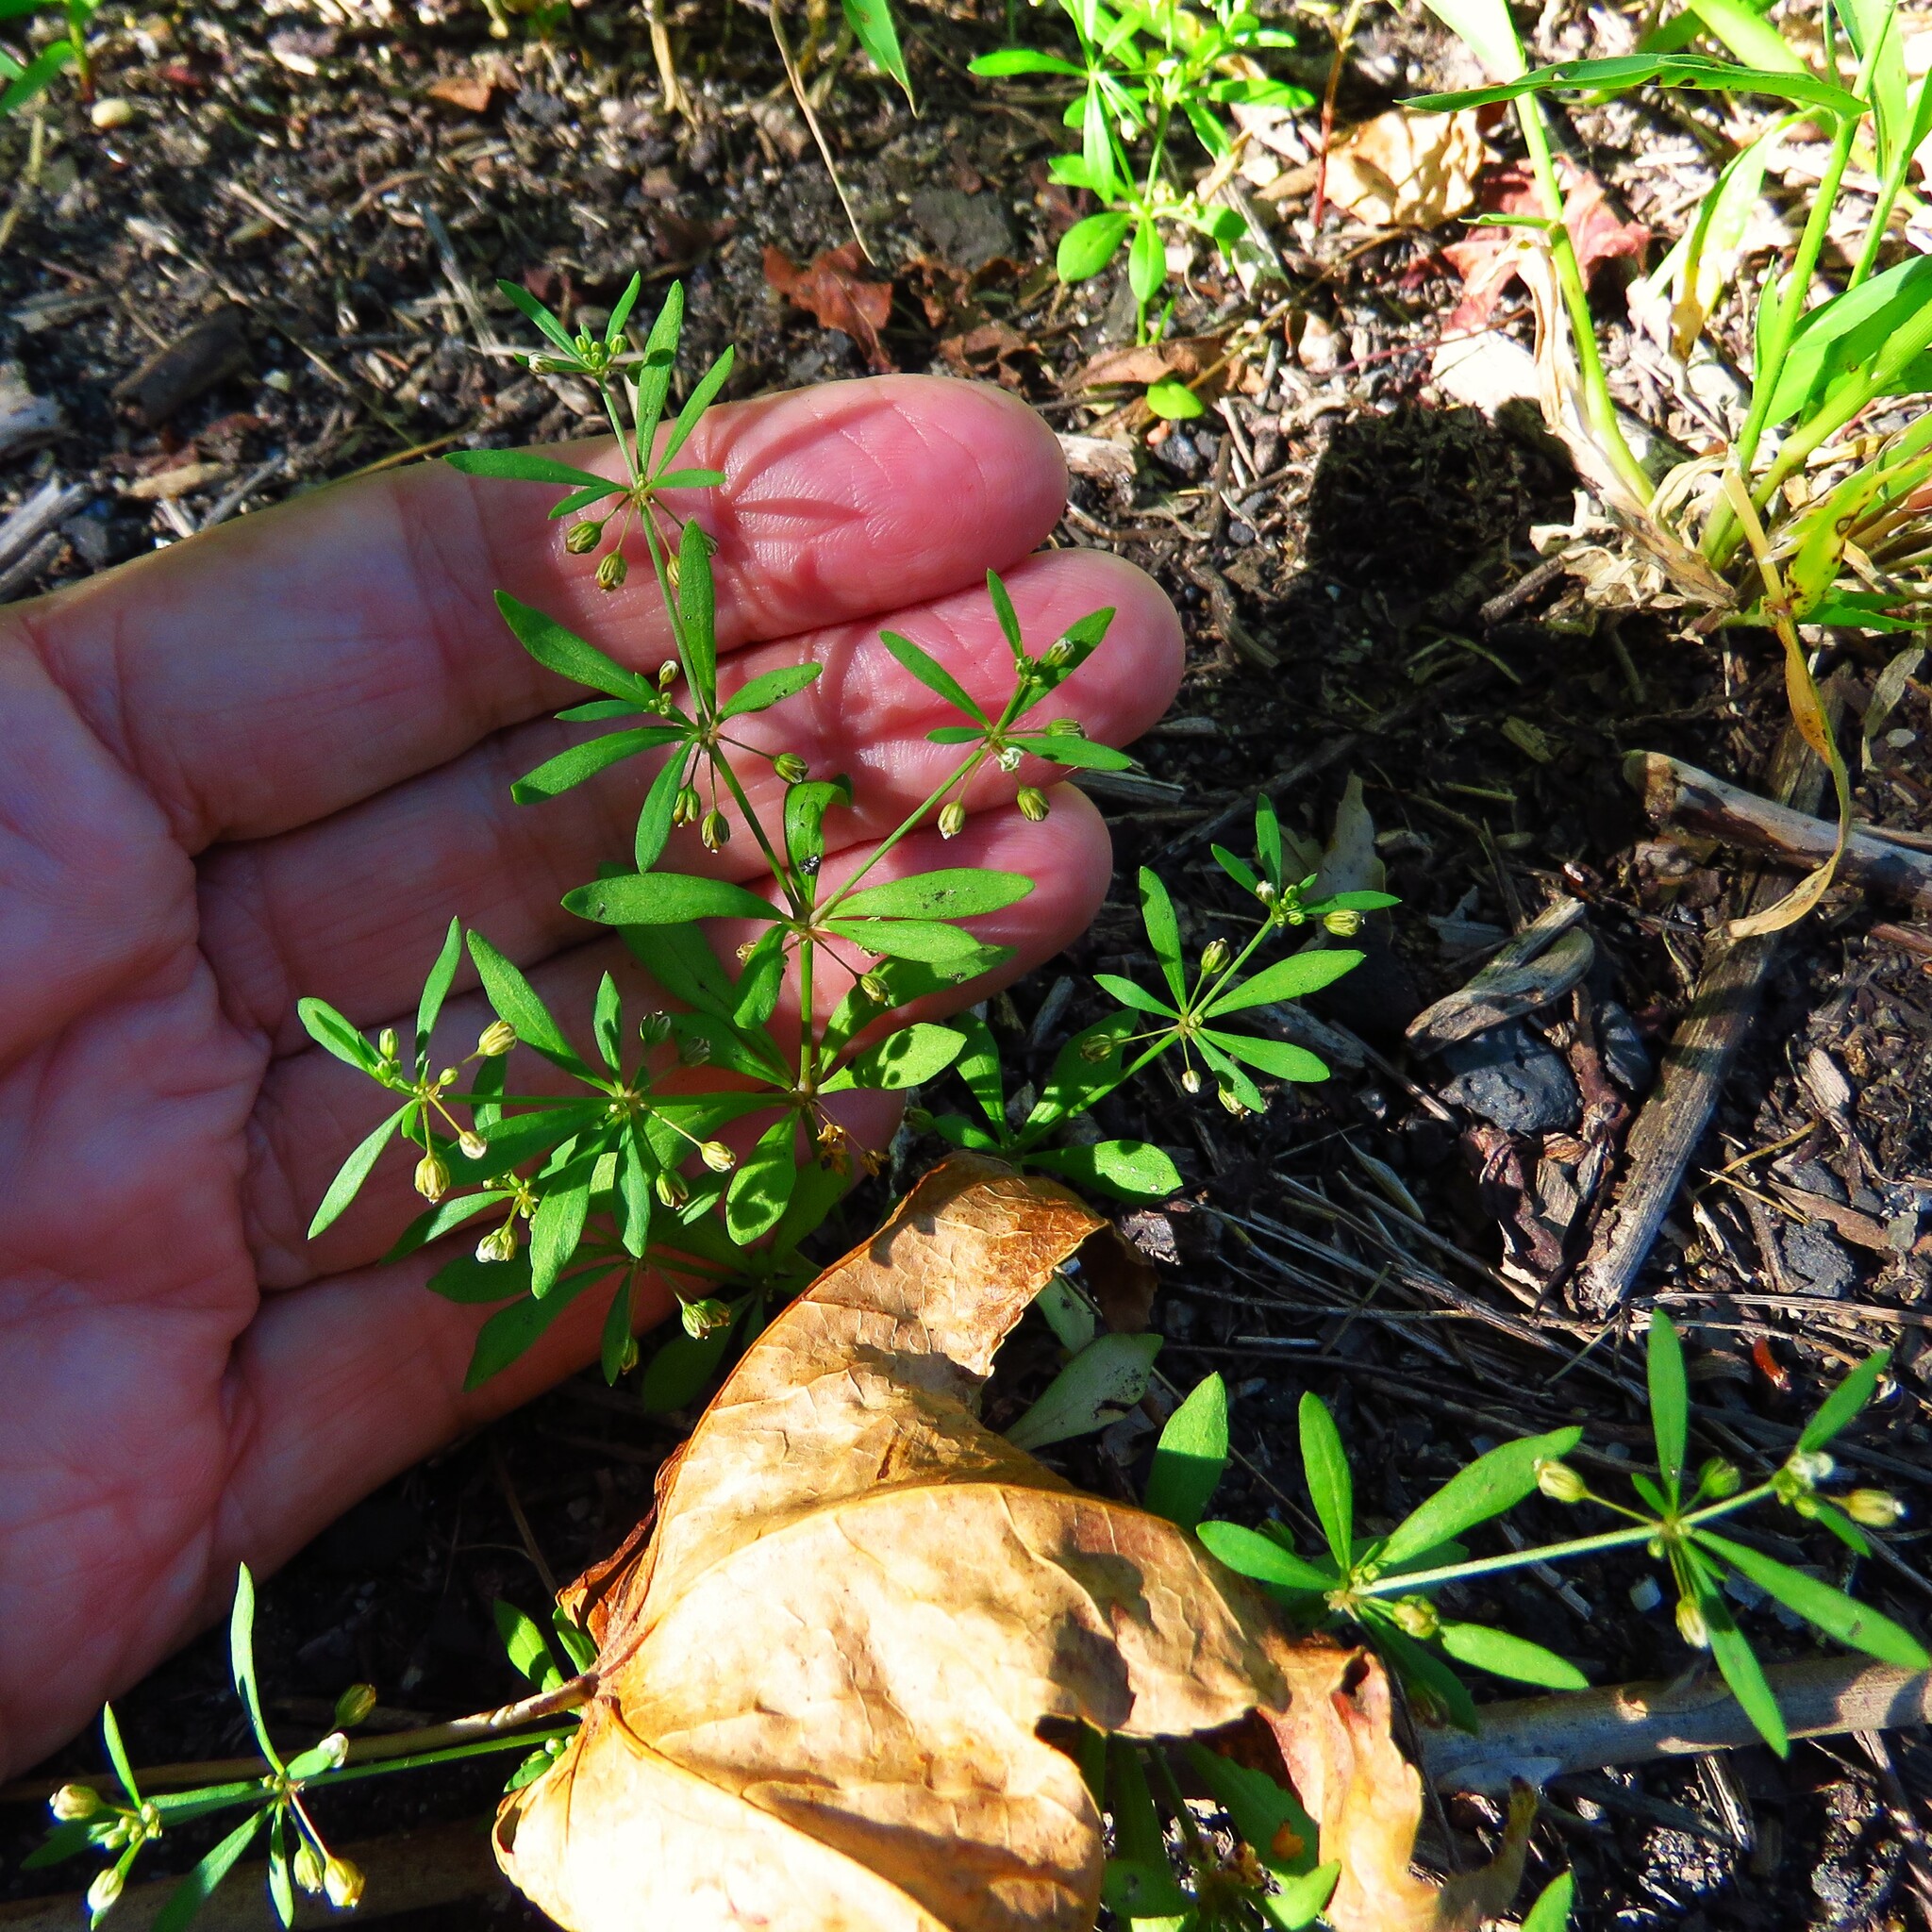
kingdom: Plantae
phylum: Tracheophyta
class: Magnoliopsida
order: Caryophyllales
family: Molluginaceae
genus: Mollugo
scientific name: Mollugo verticillata
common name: Green carpetweed
